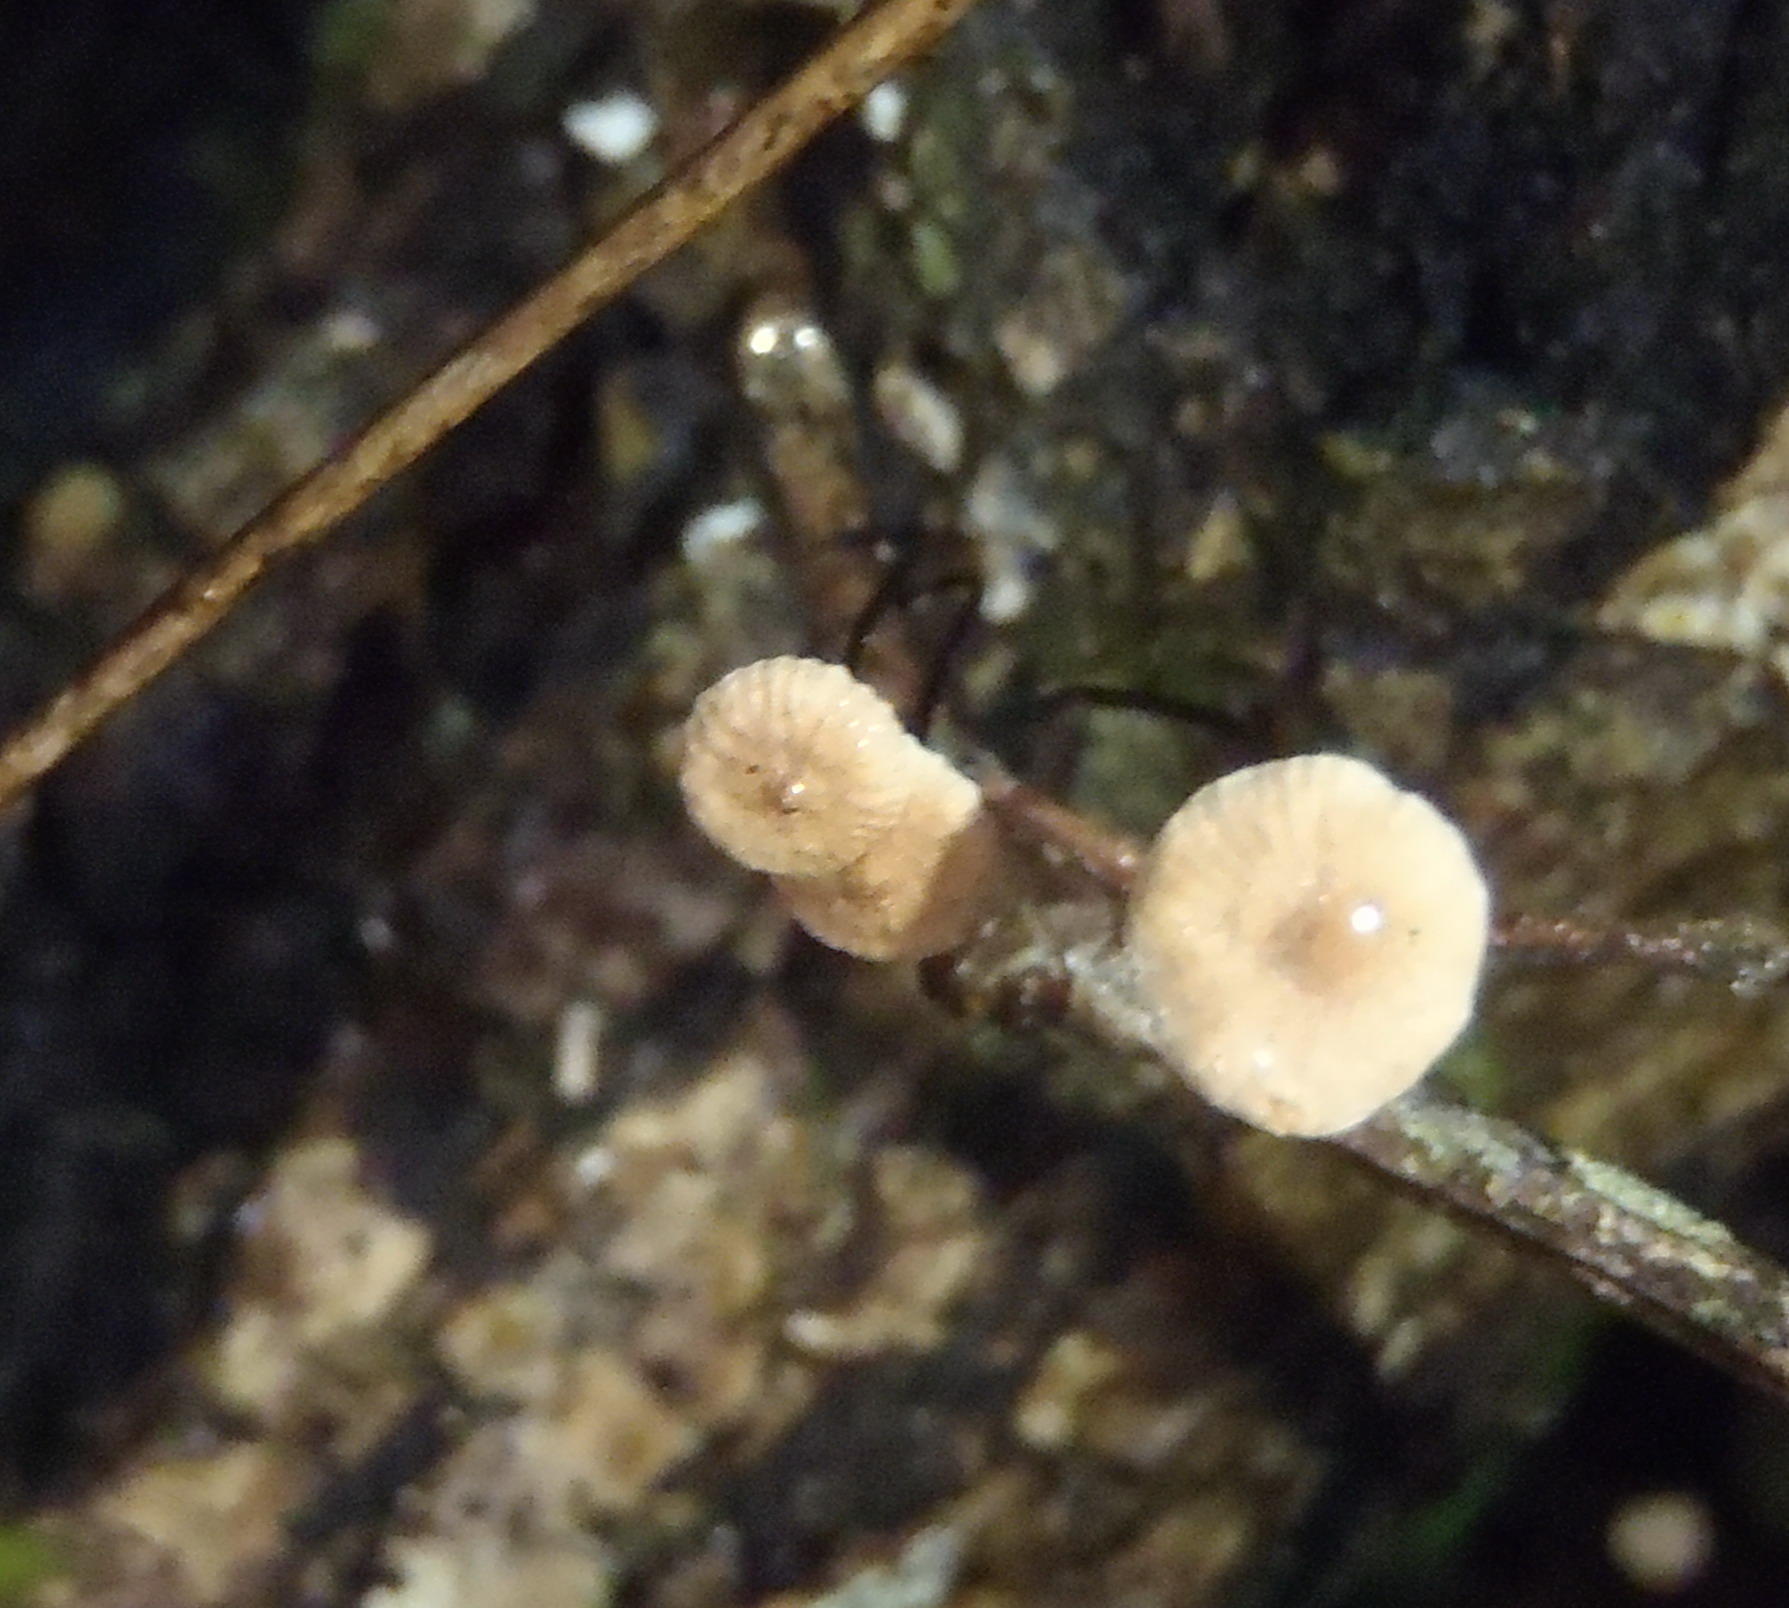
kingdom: Fungi
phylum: Basidiomycota
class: Agaricomycetes
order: Agaricales
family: Omphalotaceae
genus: Gymnopus
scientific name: Gymnopus androsaceus
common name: Horse-hair fungus
